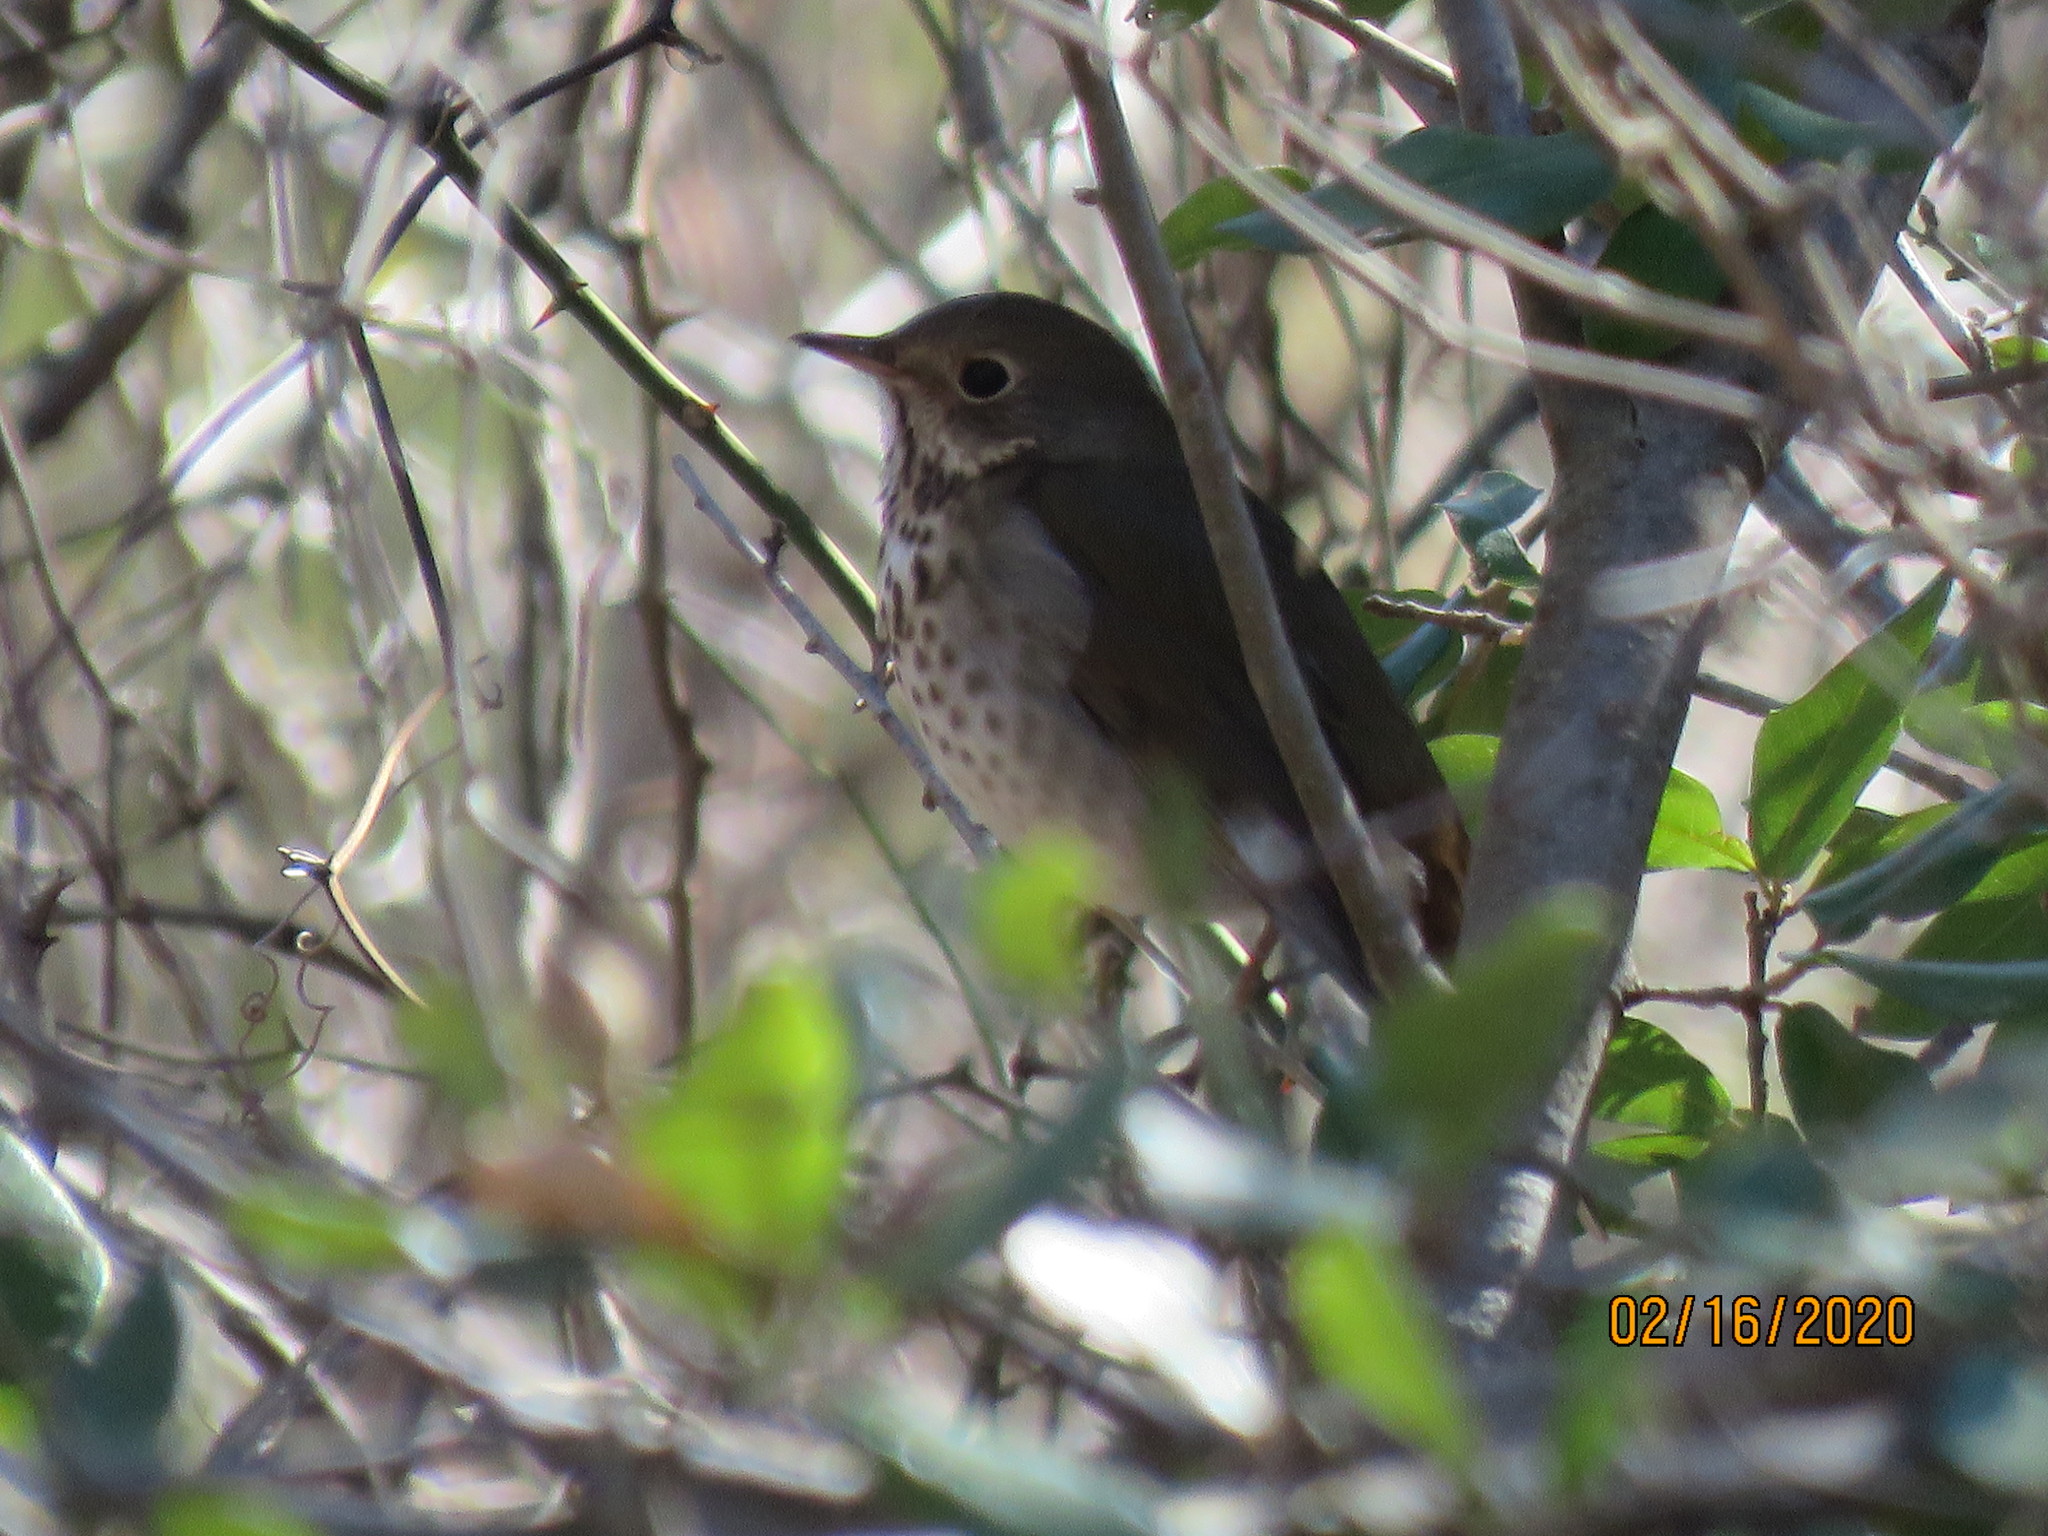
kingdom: Animalia
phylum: Chordata
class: Aves
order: Passeriformes
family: Turdidae
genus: Catharus
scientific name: Catharus guttatus
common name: Hermit thrush
